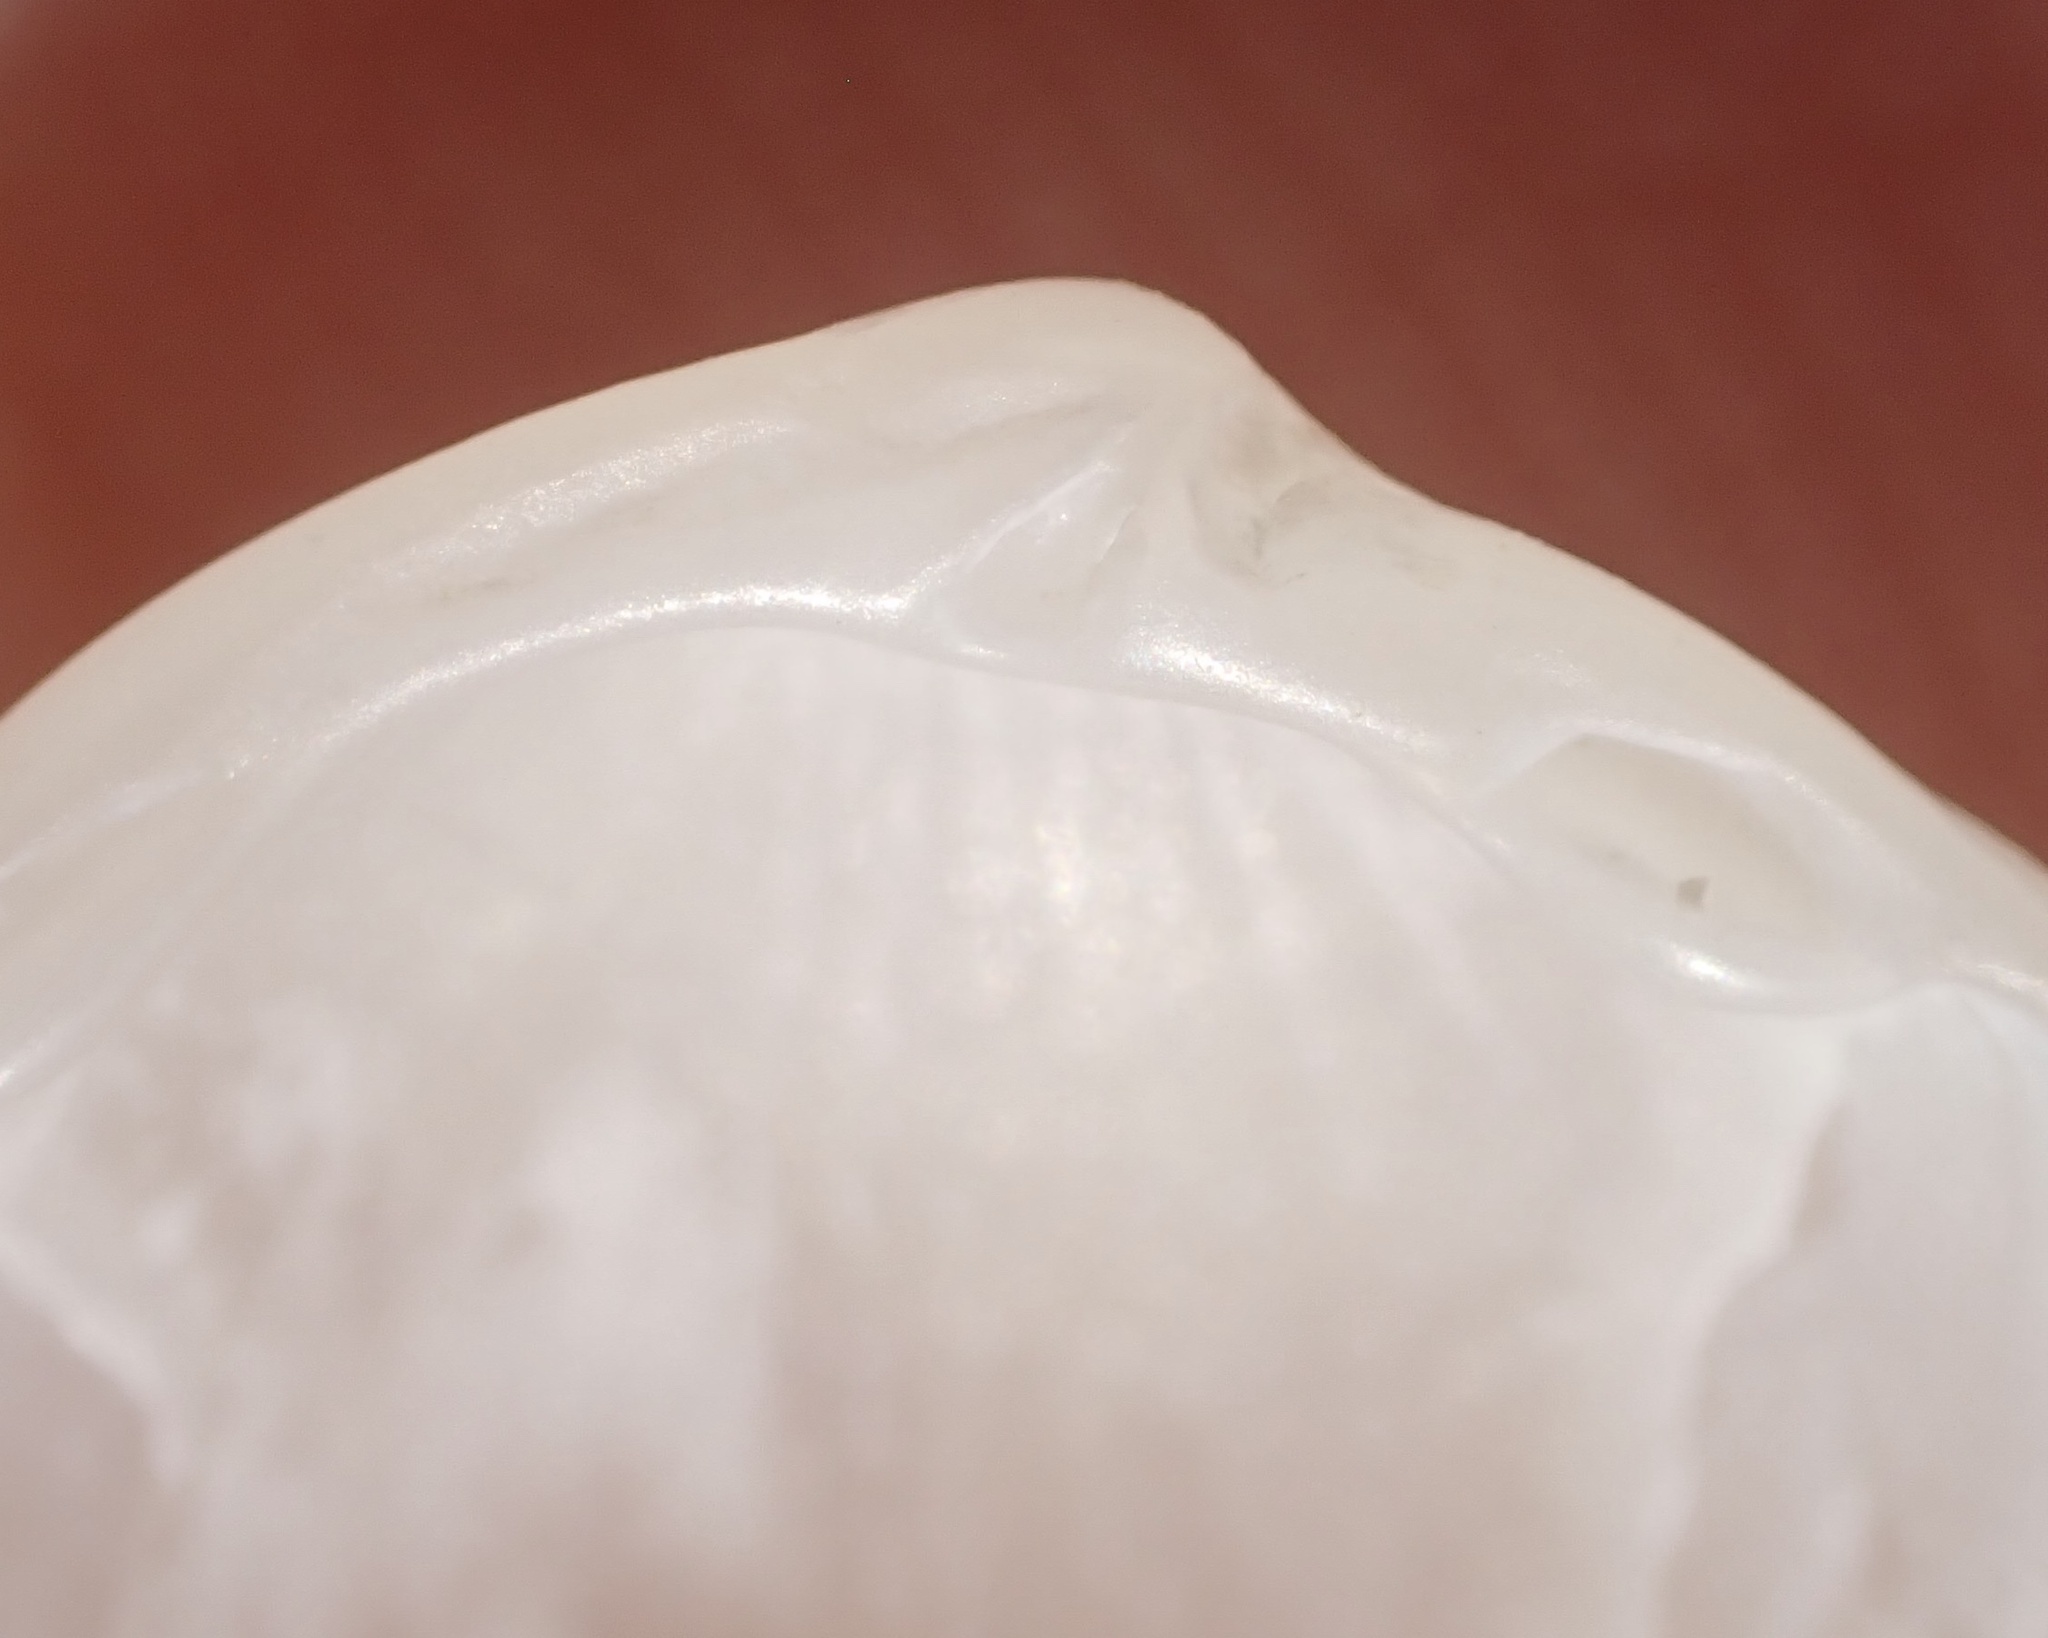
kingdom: Animalia
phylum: Mollusca
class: Bivalvia
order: Lucinida
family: Lucinidae
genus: Lucinisca
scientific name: Lucinisca nassula
